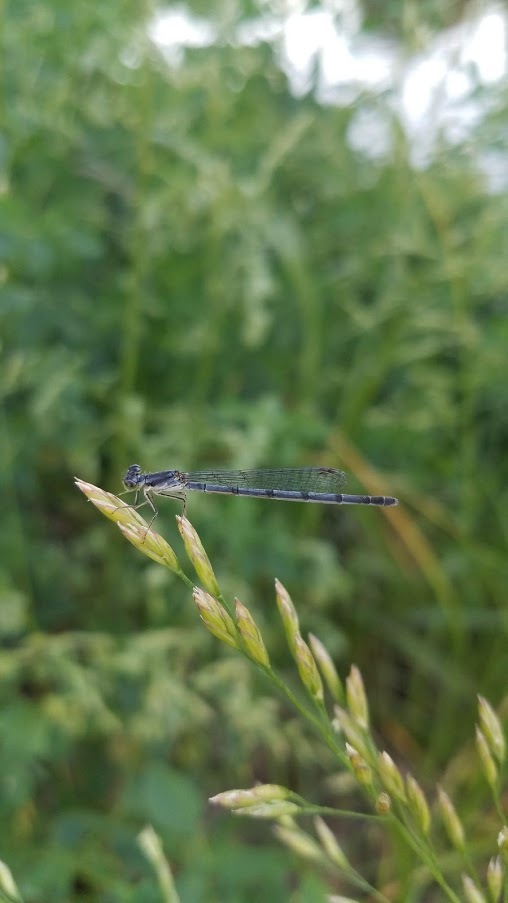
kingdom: Animalia
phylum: Arthropoda
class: Insecta
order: Odonata
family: Coenagrionidae
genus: Ischnura
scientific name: Ischnura posita
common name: Fragile forktail
